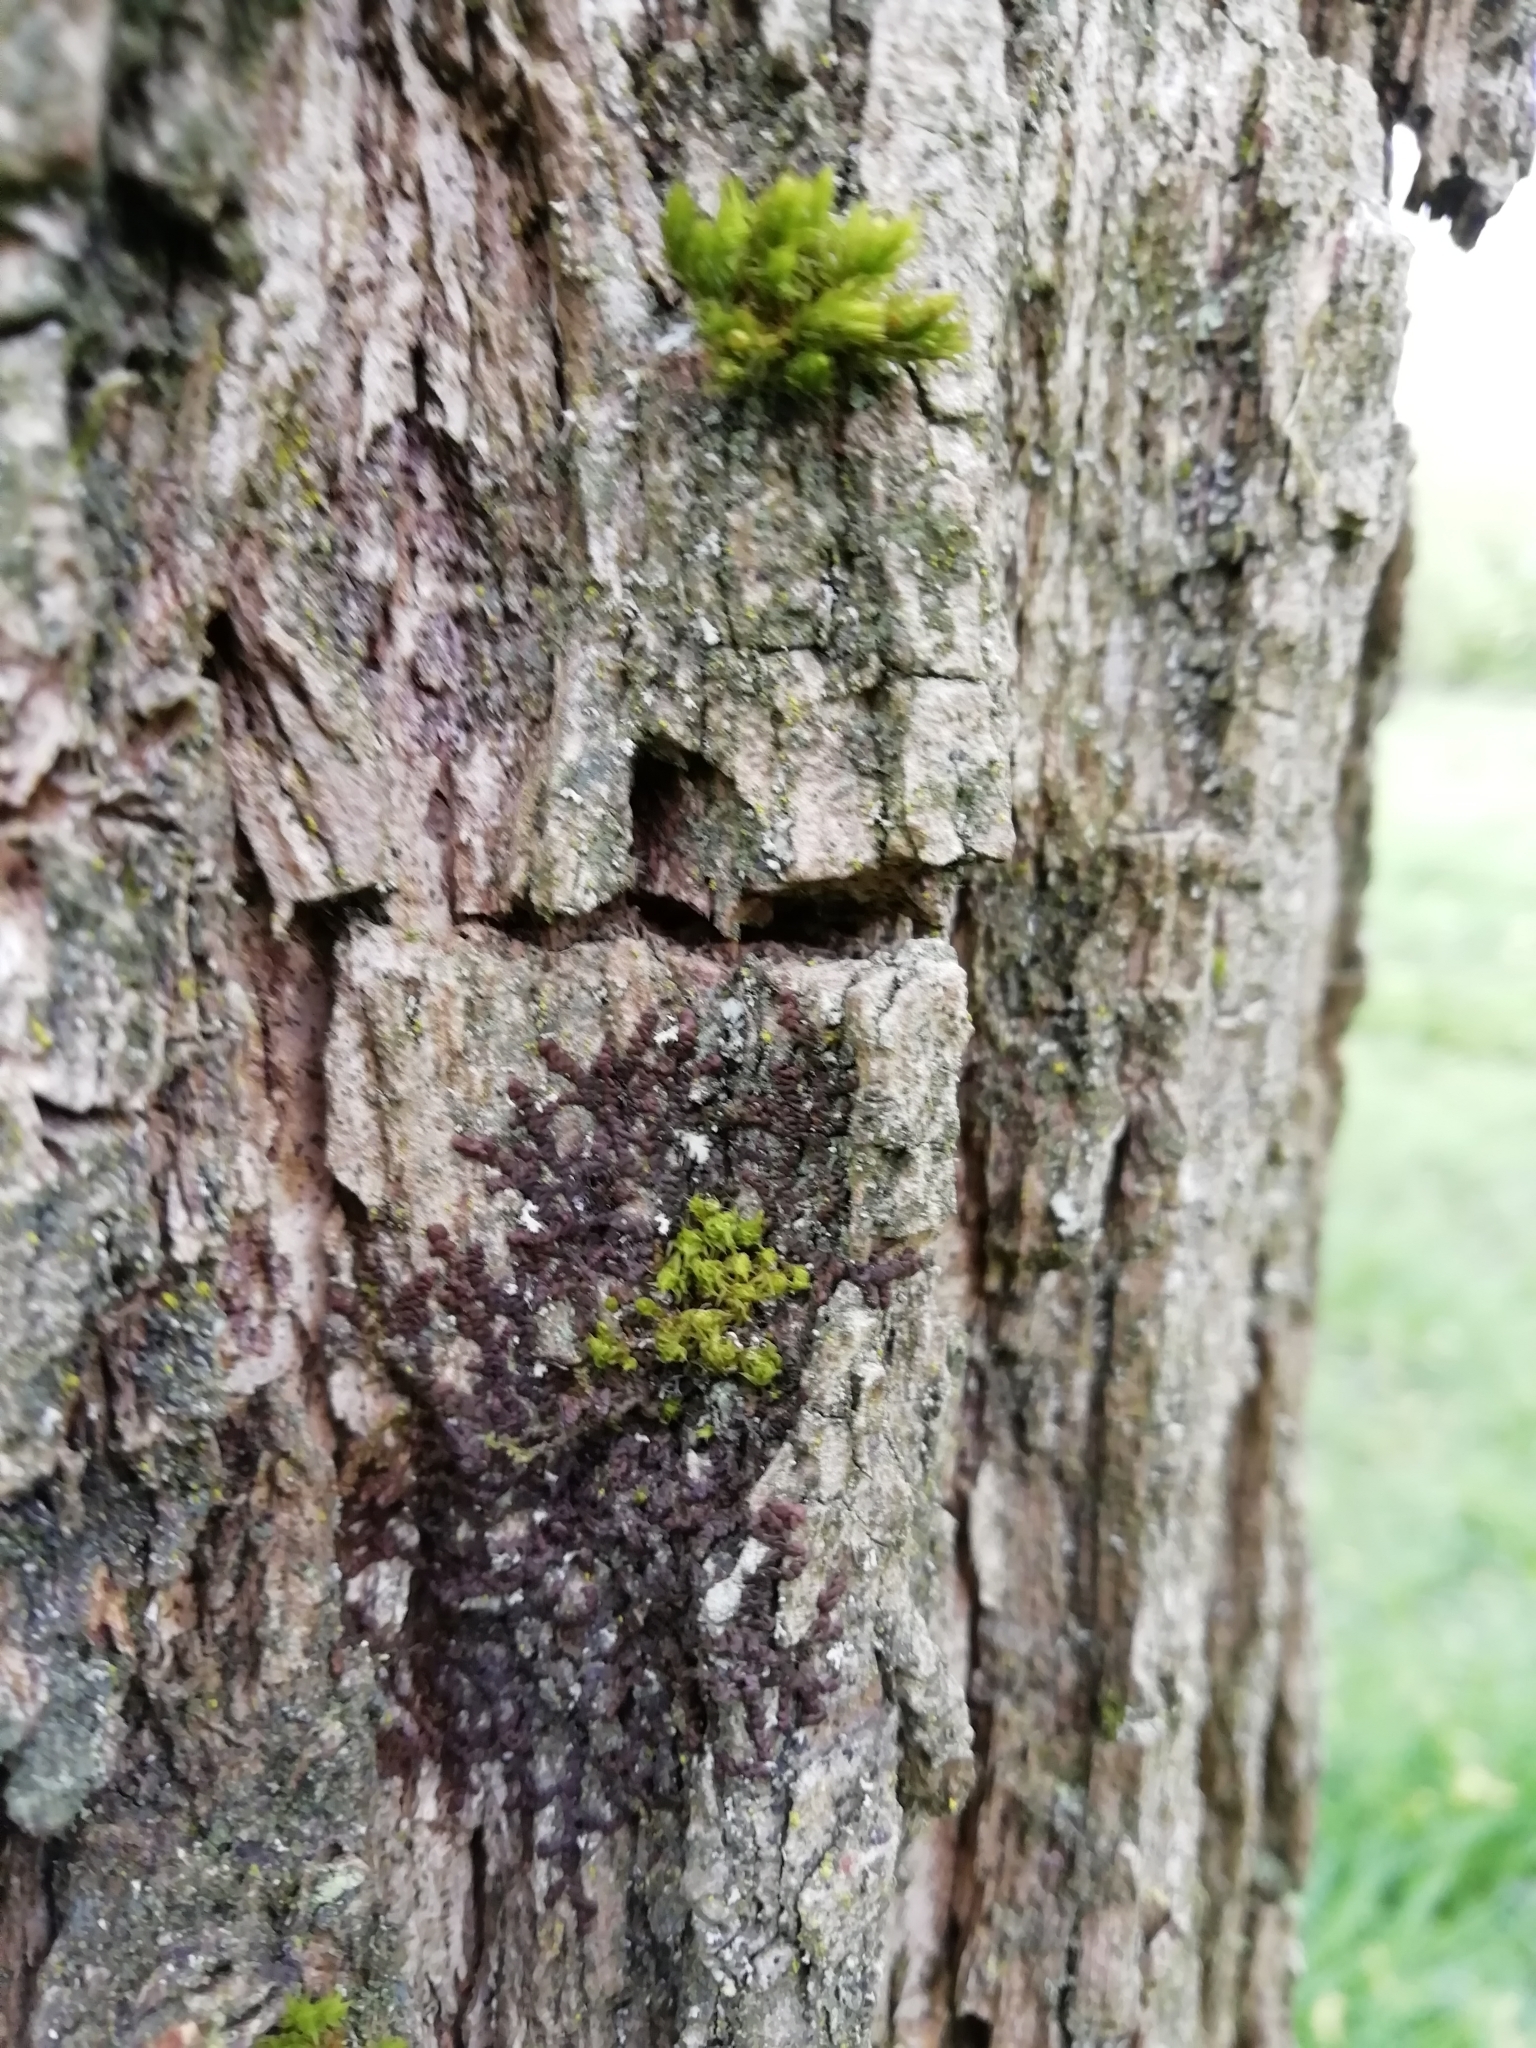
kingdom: Plantae
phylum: Marchantiophyta
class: Jungermanniopsida
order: Porellales
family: Frullaniaceae
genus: Frullania
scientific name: Frullania dilatata
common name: Dilated scalewort
